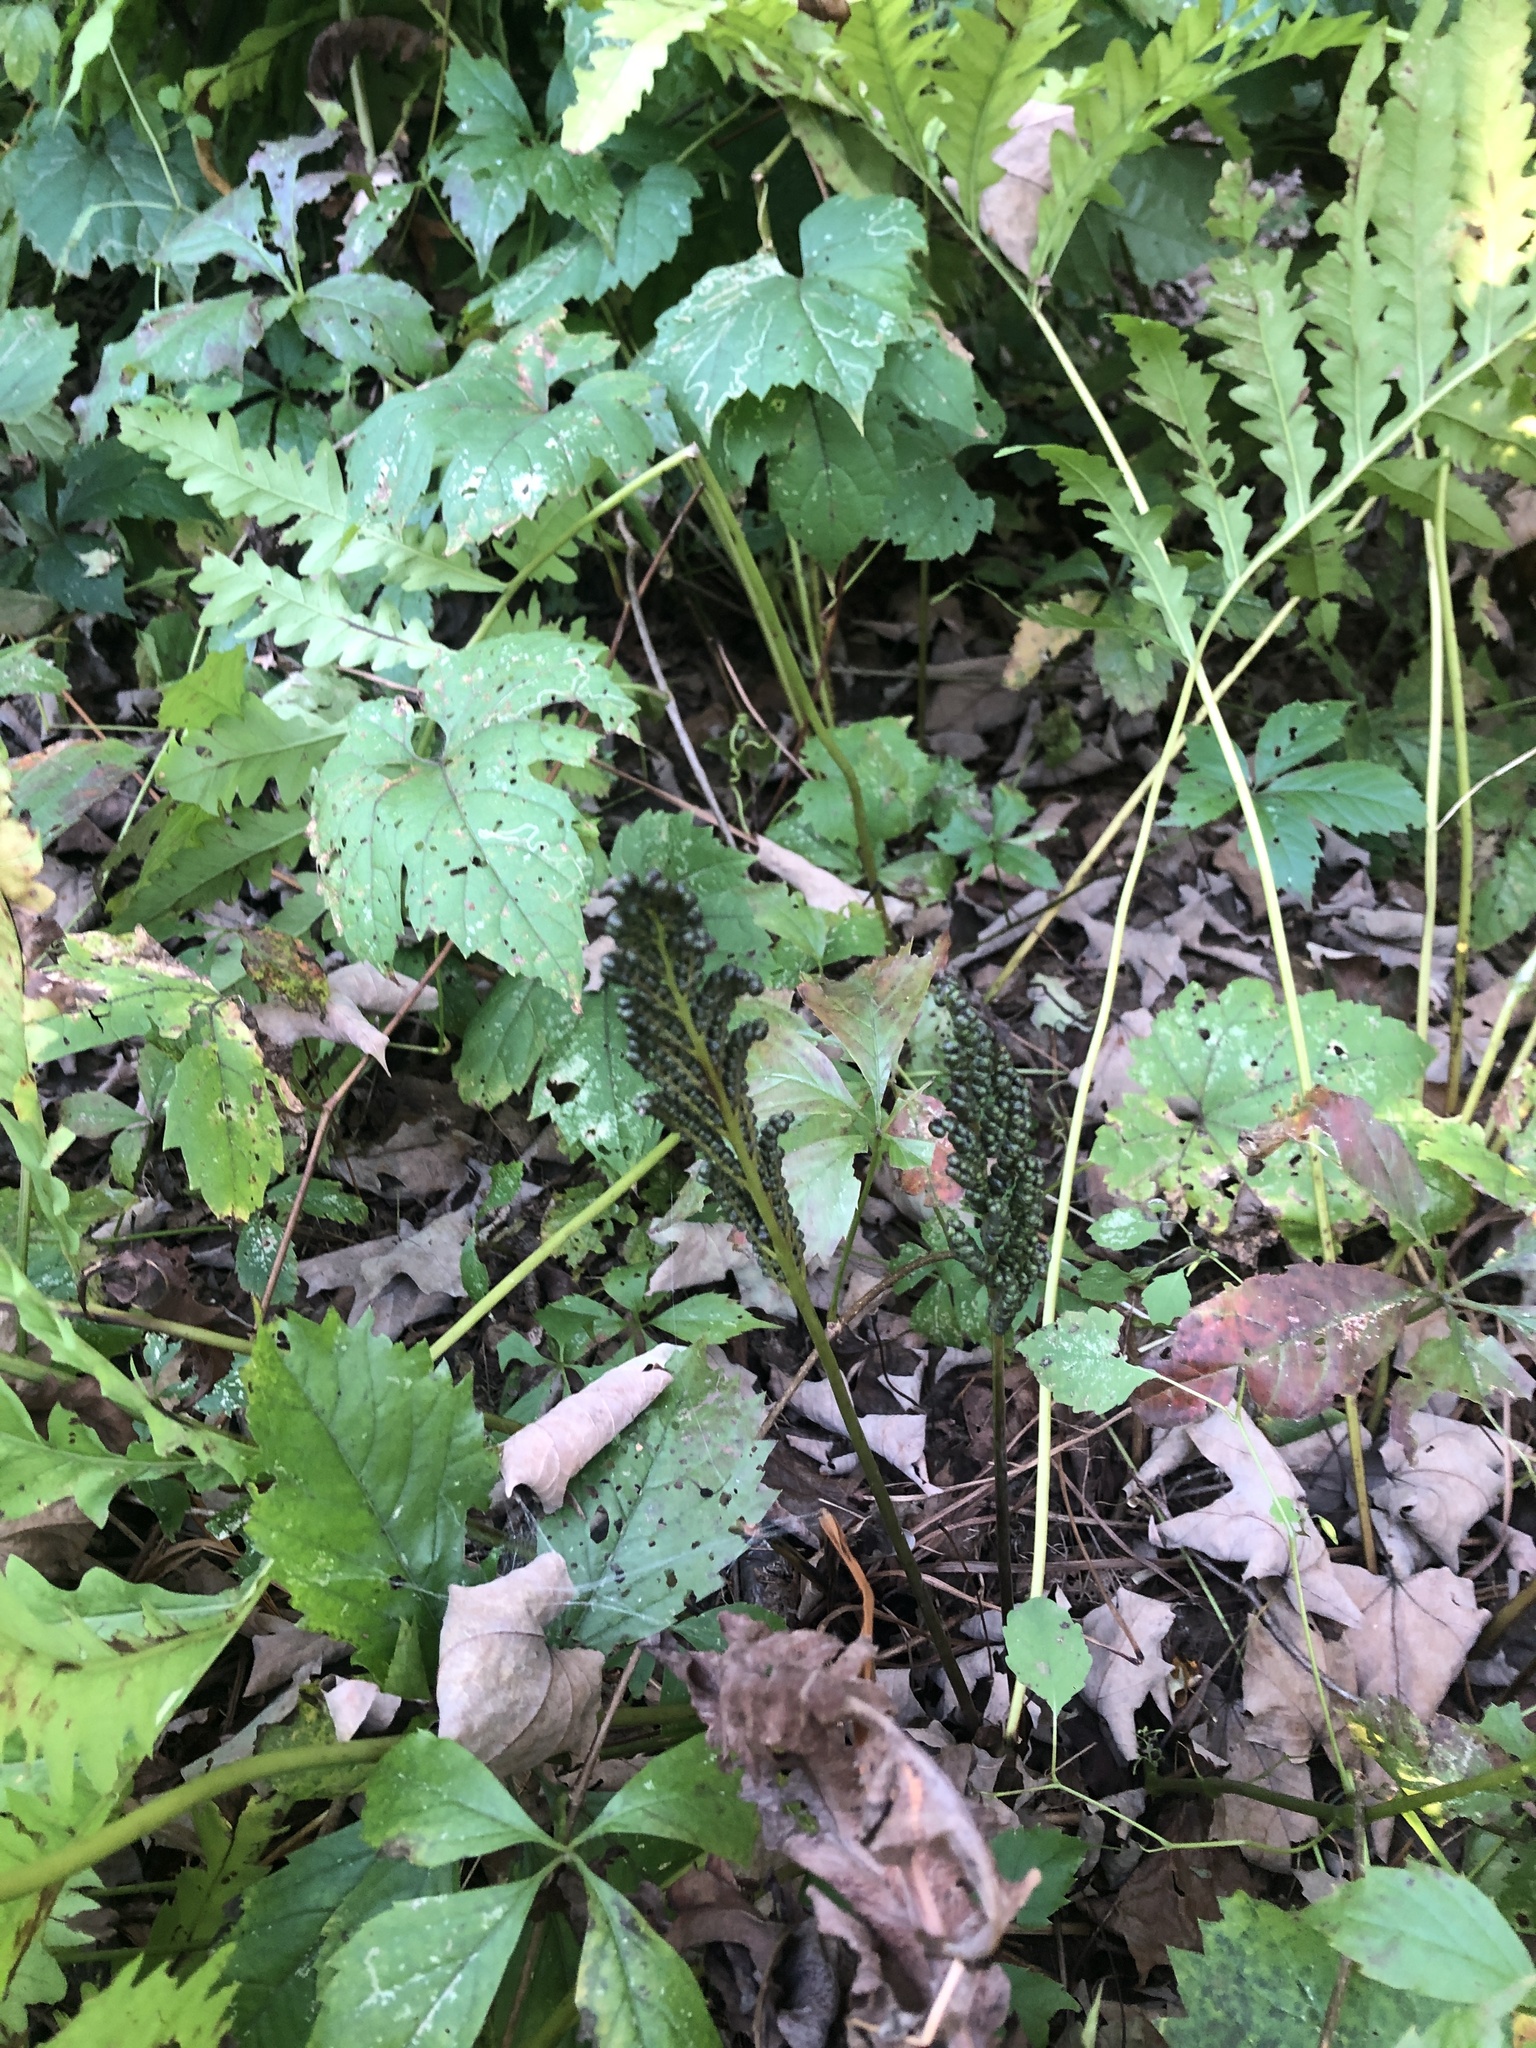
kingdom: Plantae
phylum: Tracheophyta
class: Polypodiopsida
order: Polypodiales
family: Onocleaceae
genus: Onoclea
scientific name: Onoclea sensibilis
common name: Sensitive fern
